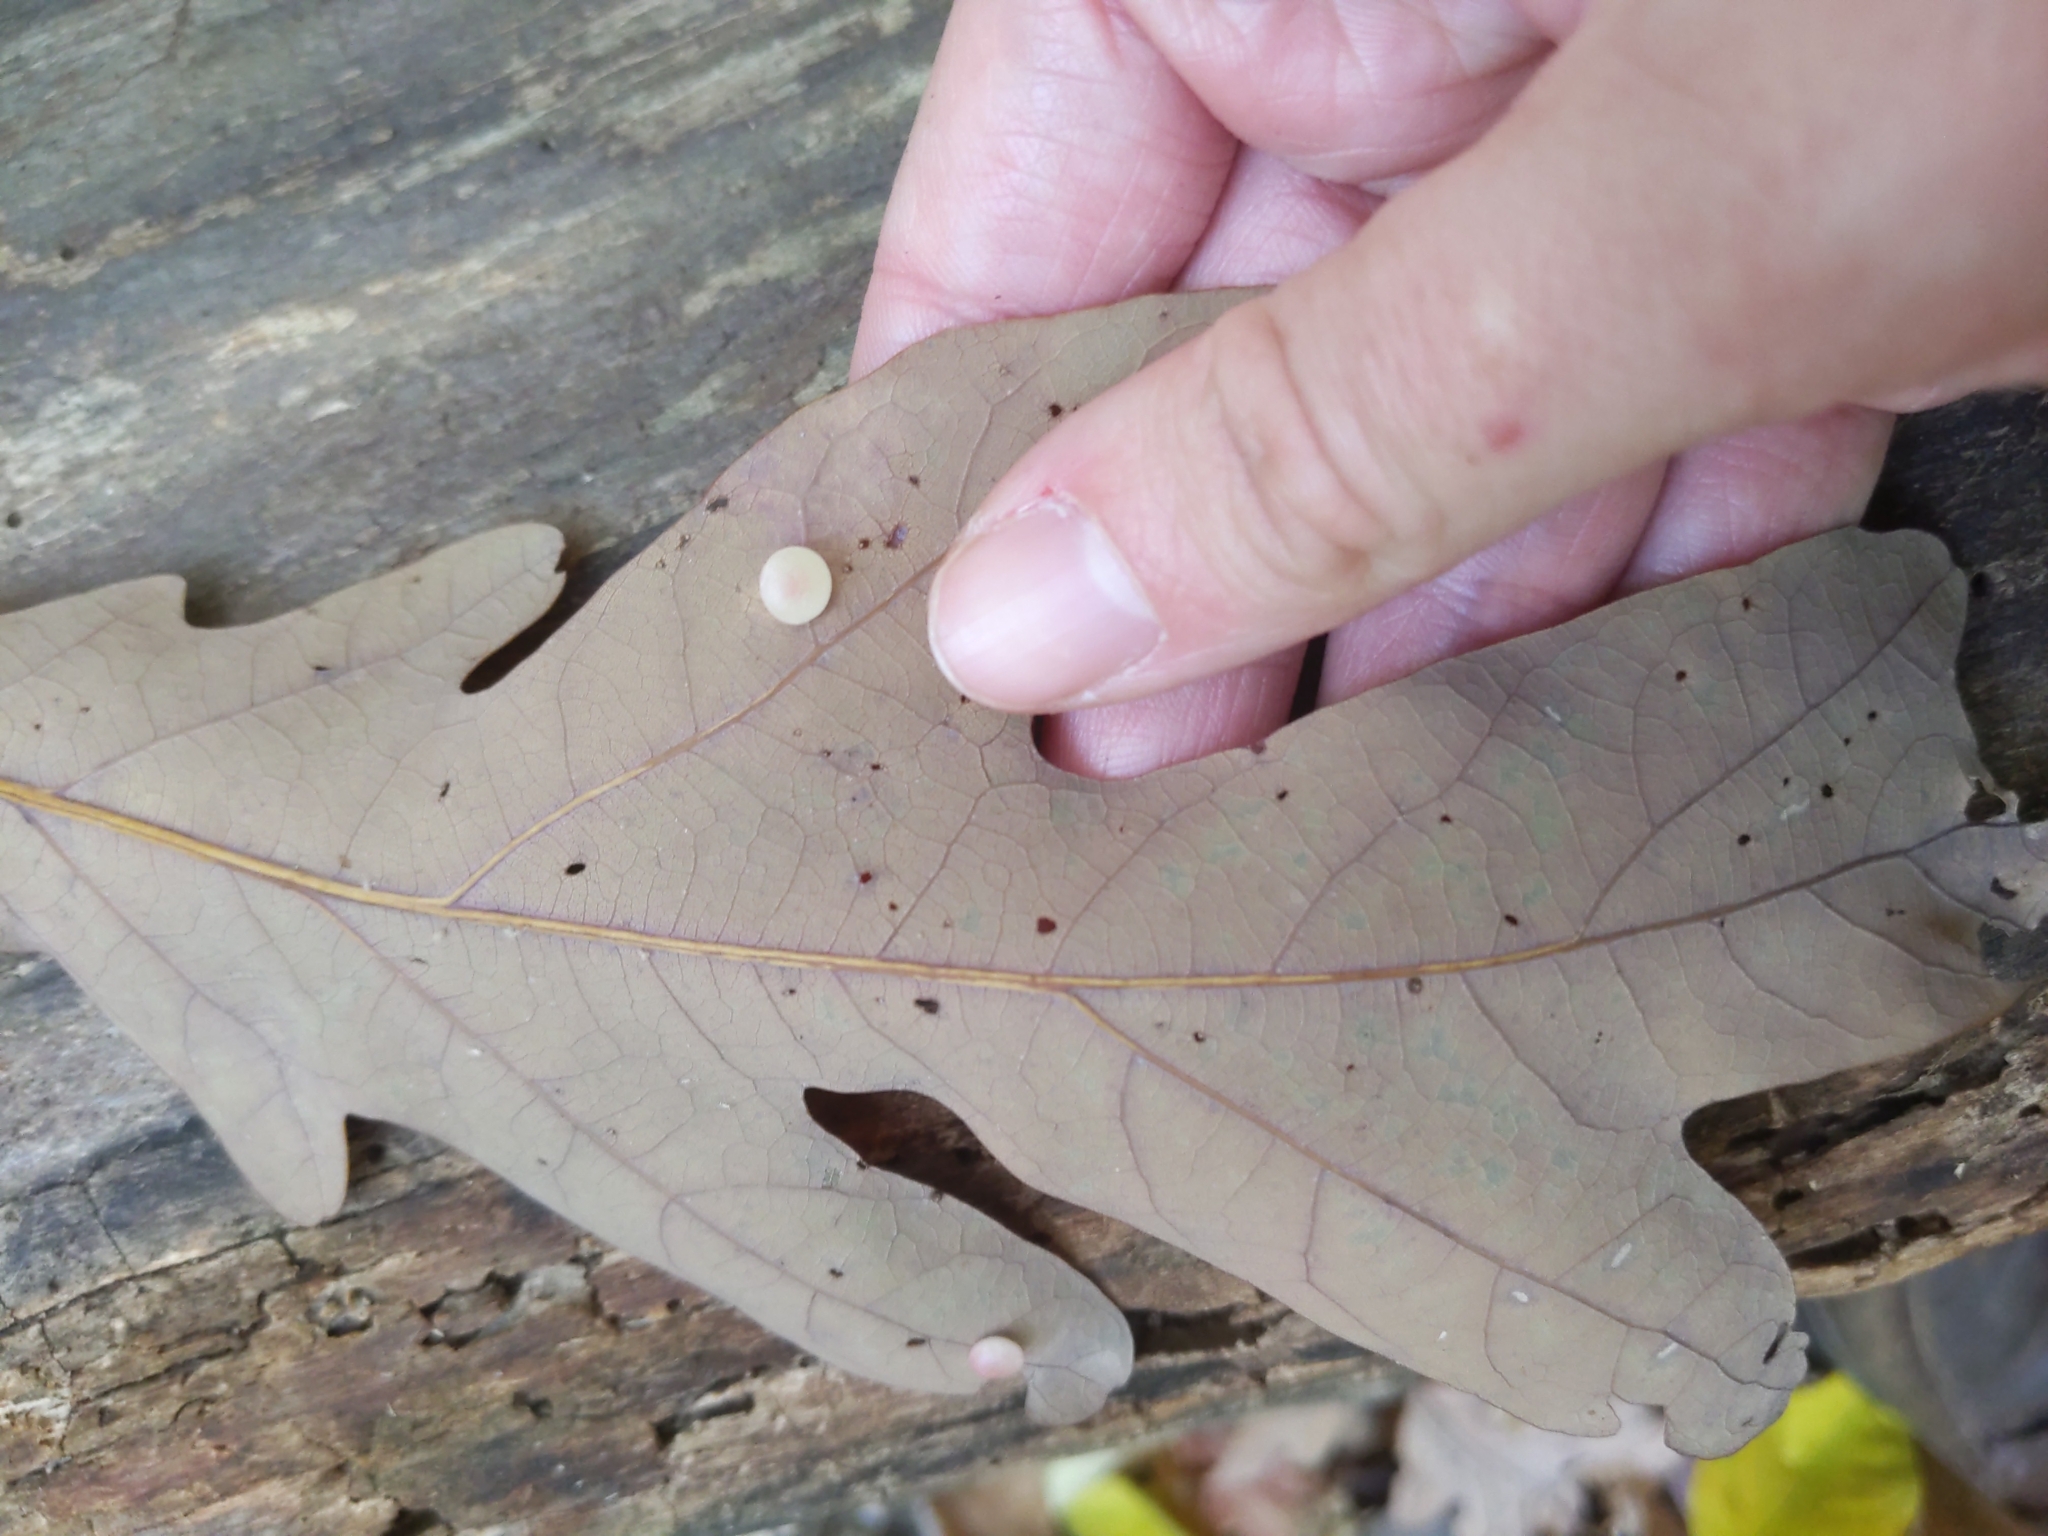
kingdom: Animalia
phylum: Arthropoda
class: Insecta
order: Hymenoptera
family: Cynipidae
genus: Phylloteras
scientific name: Phylloteras
